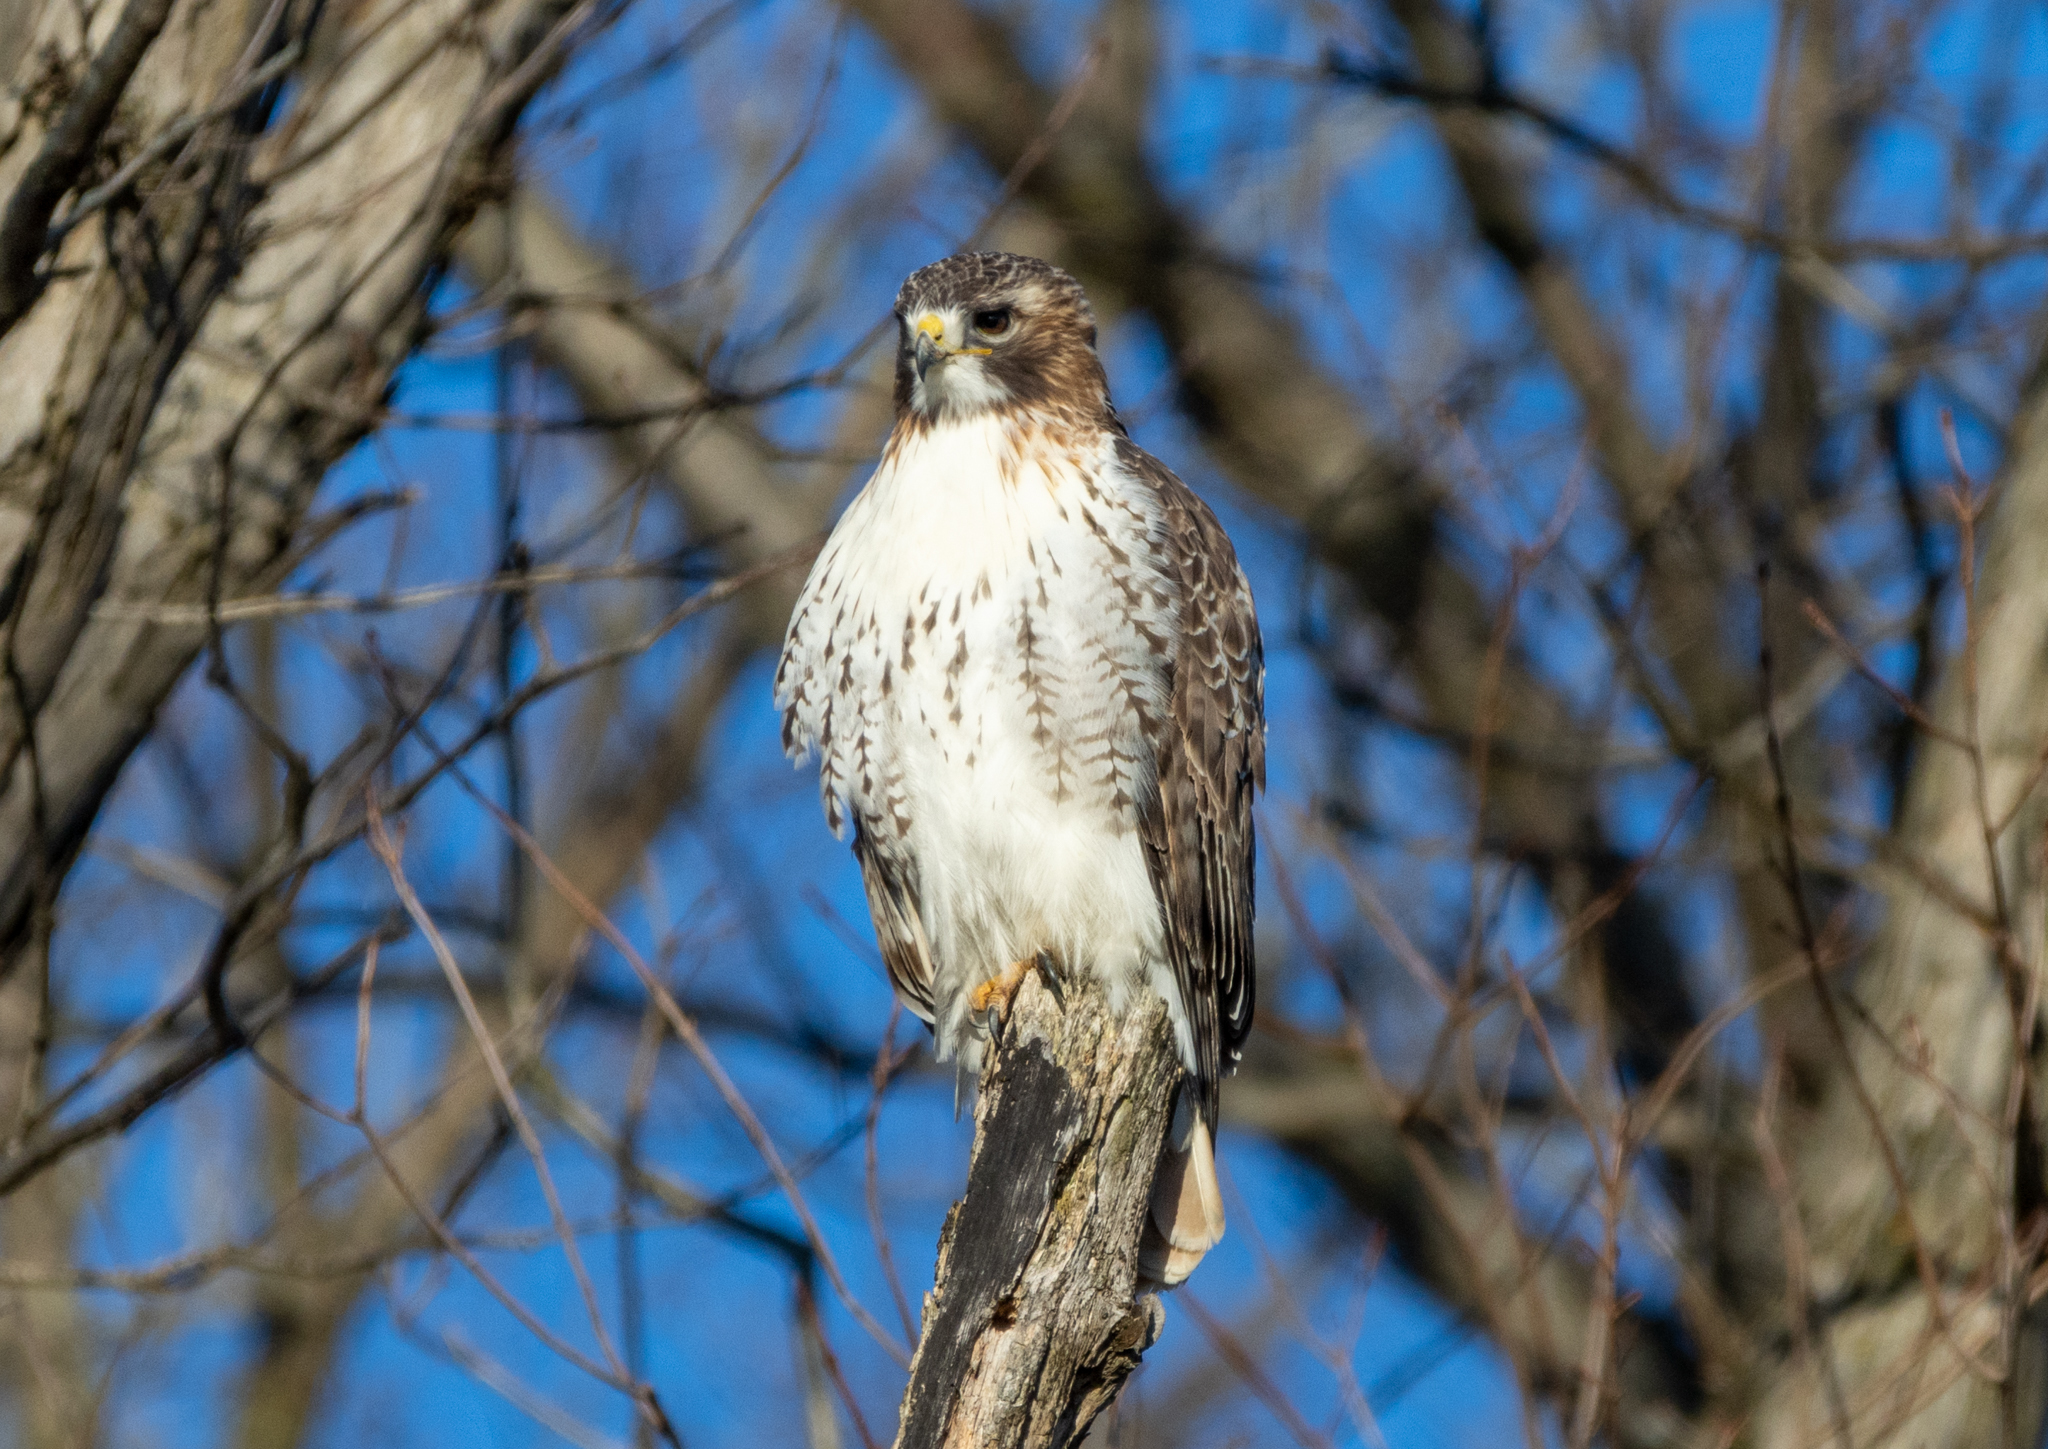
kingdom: Animalia
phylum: Chordata
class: Aves
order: Accipitriformes
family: Accipitridae
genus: Buteo
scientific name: Buteo jamaicensis
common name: Red-tailed hawk
